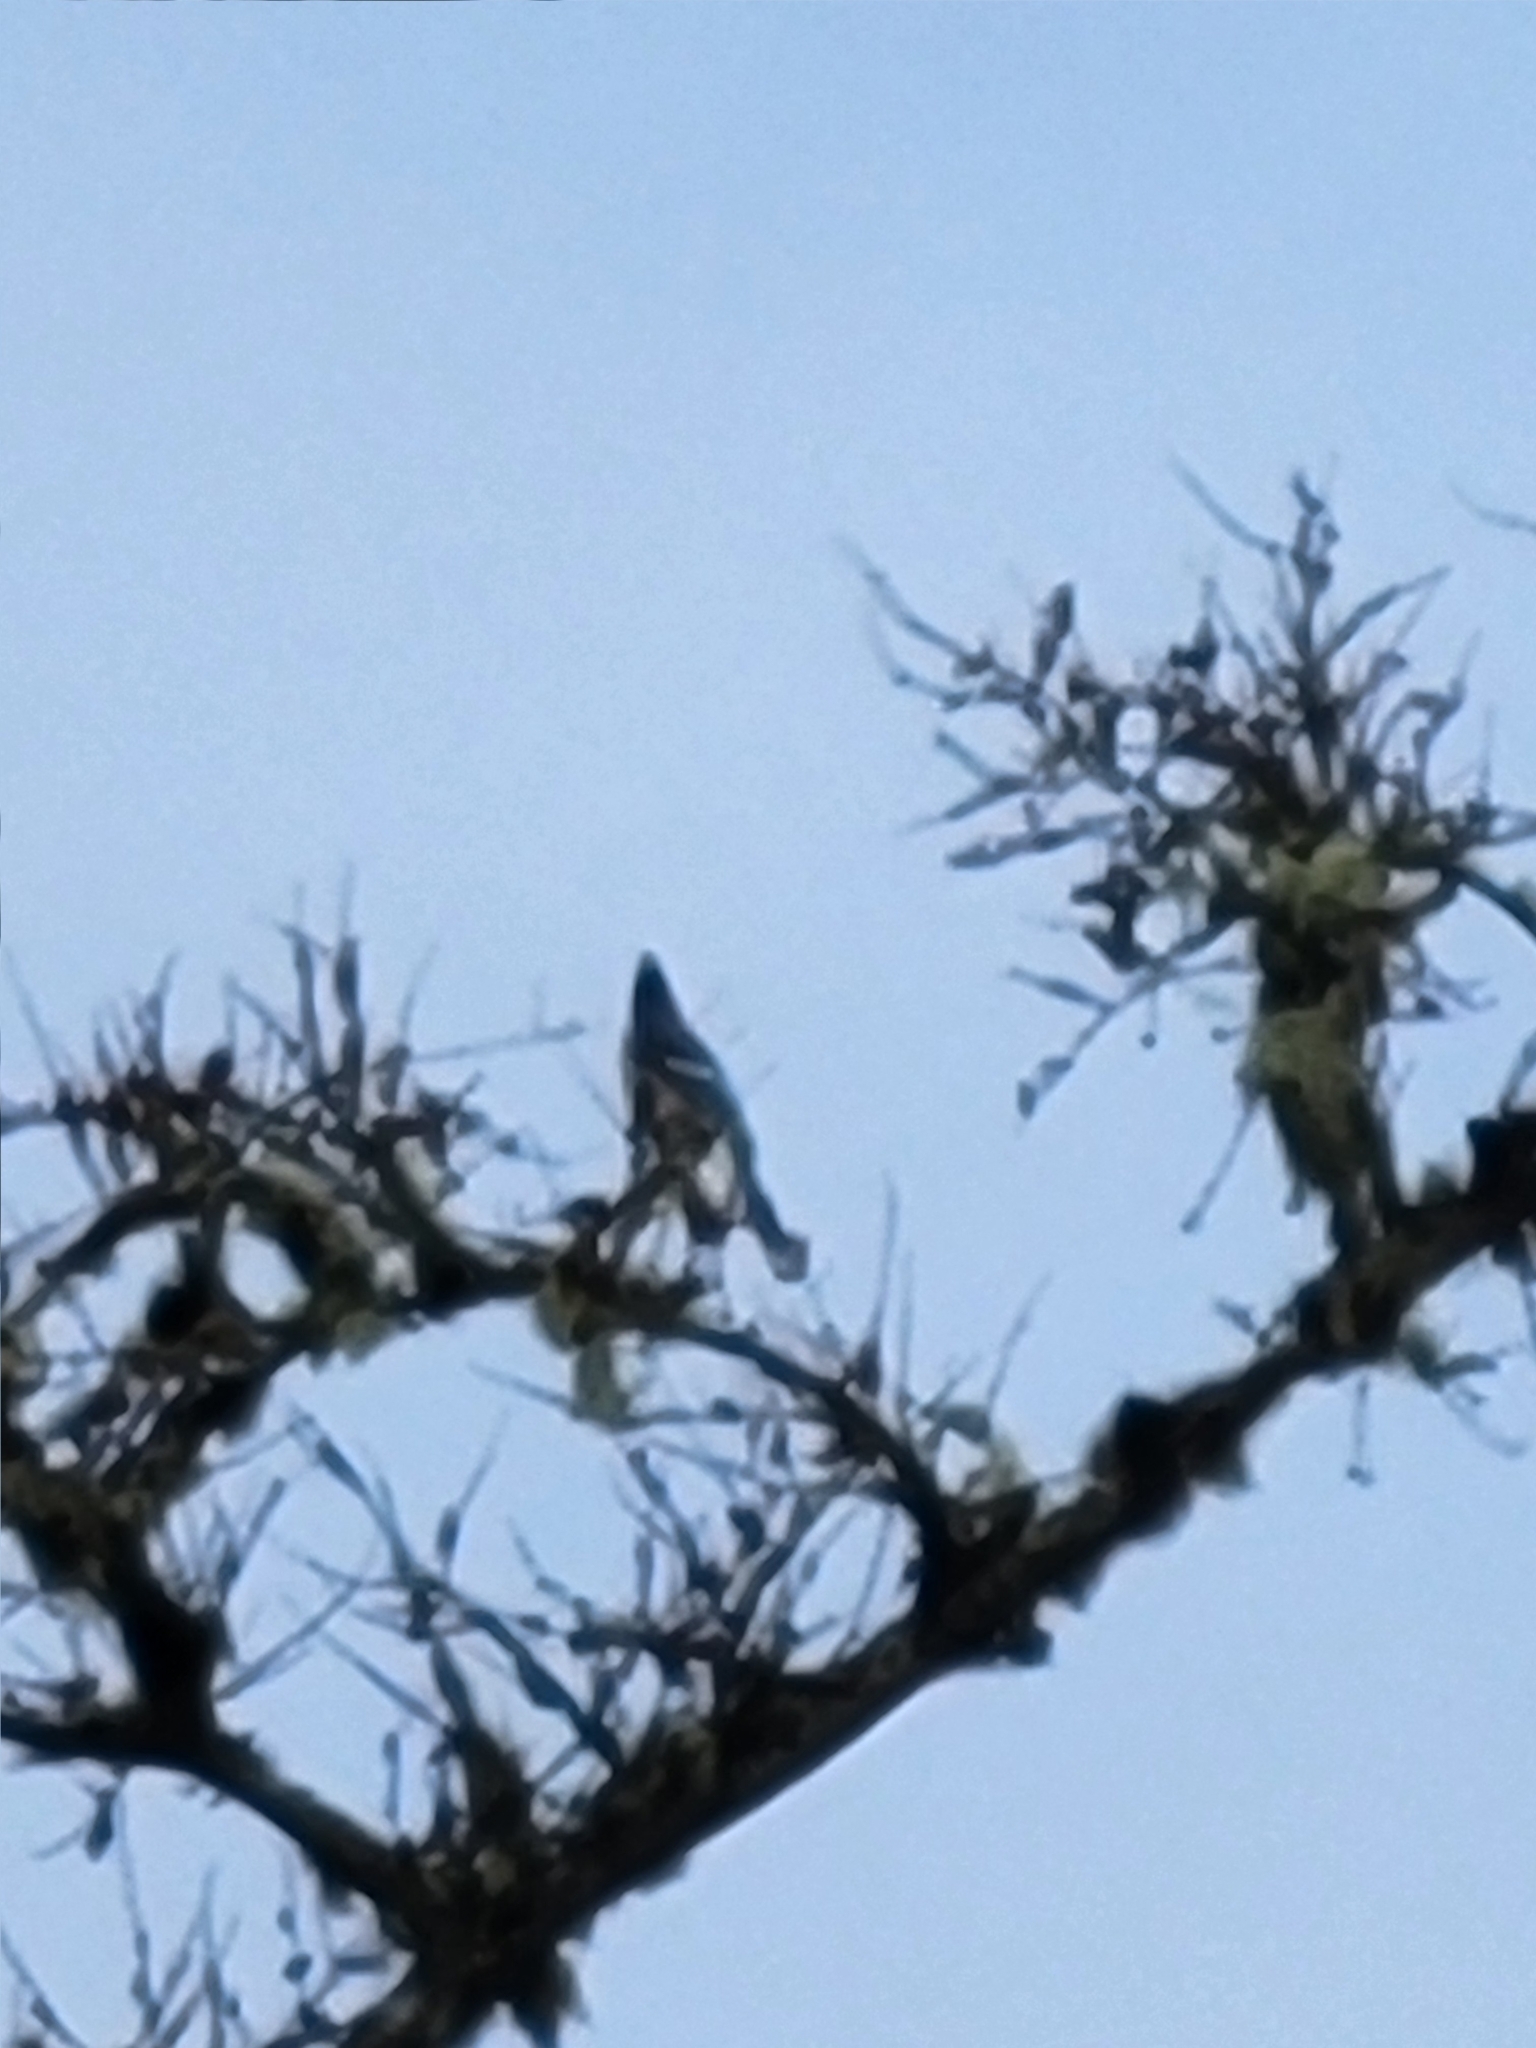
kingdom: Animalia
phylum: Chordata
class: Aves
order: Passeriformes
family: Corvidae
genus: Cyanocitta
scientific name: Cyanocitta cristata
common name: Blue jay
